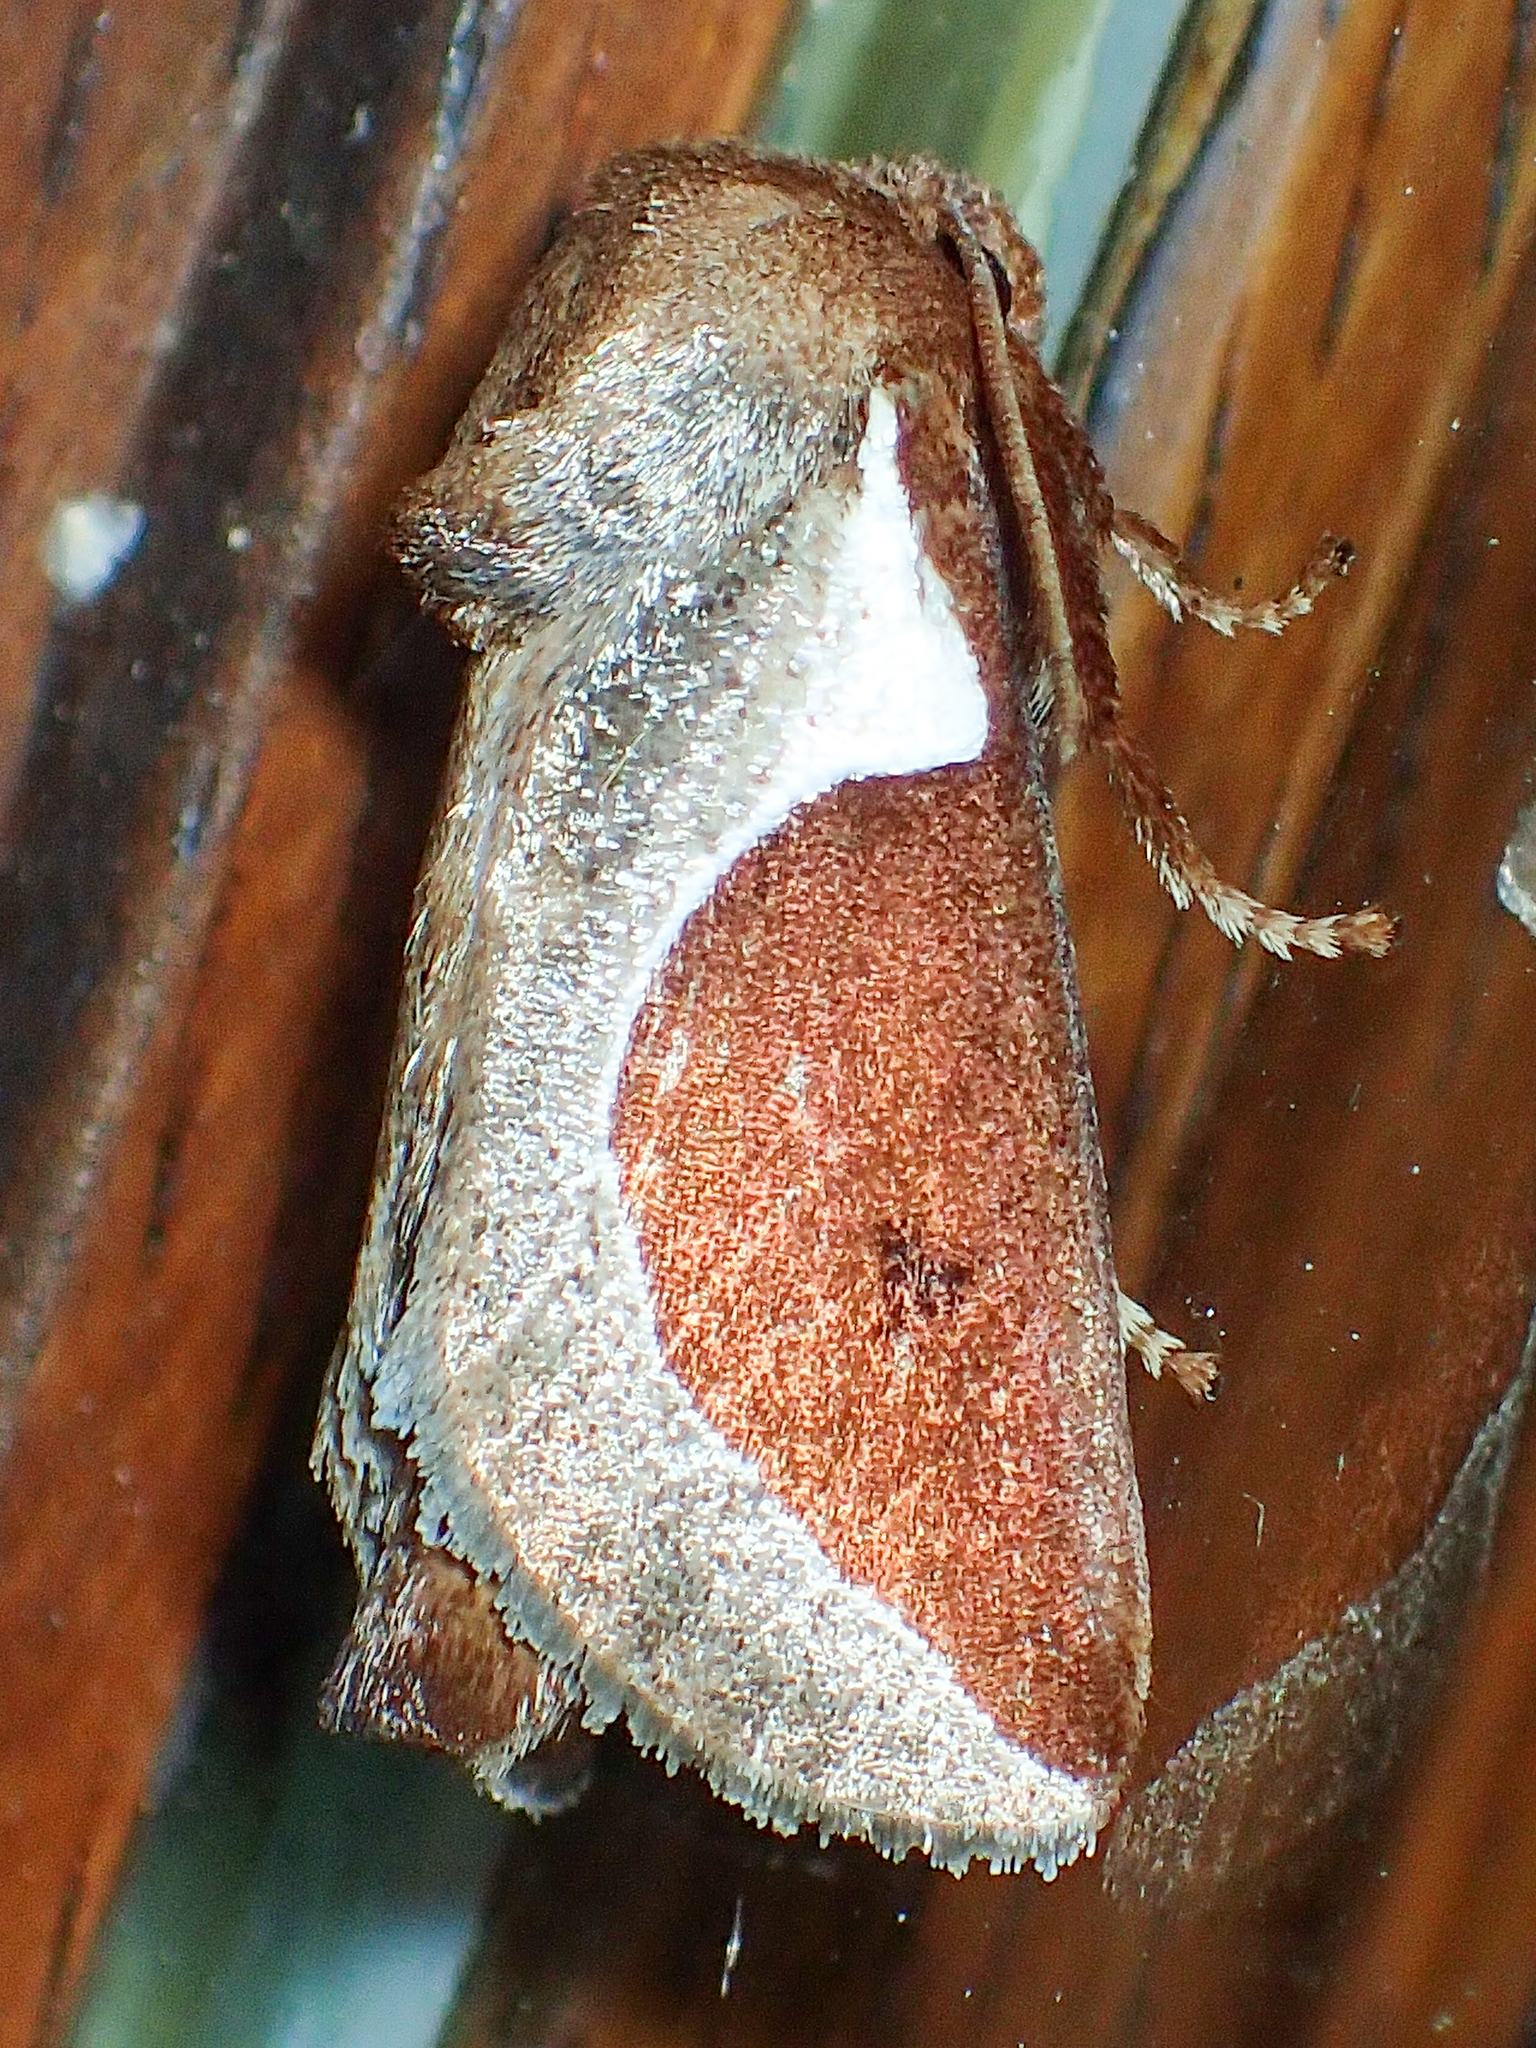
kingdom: Animalia
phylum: Arthropoda
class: Insecta
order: Lepidoptera
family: Limacodidae
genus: Prolimacodes
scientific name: Prolimacodes badia
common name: Skiff moth
